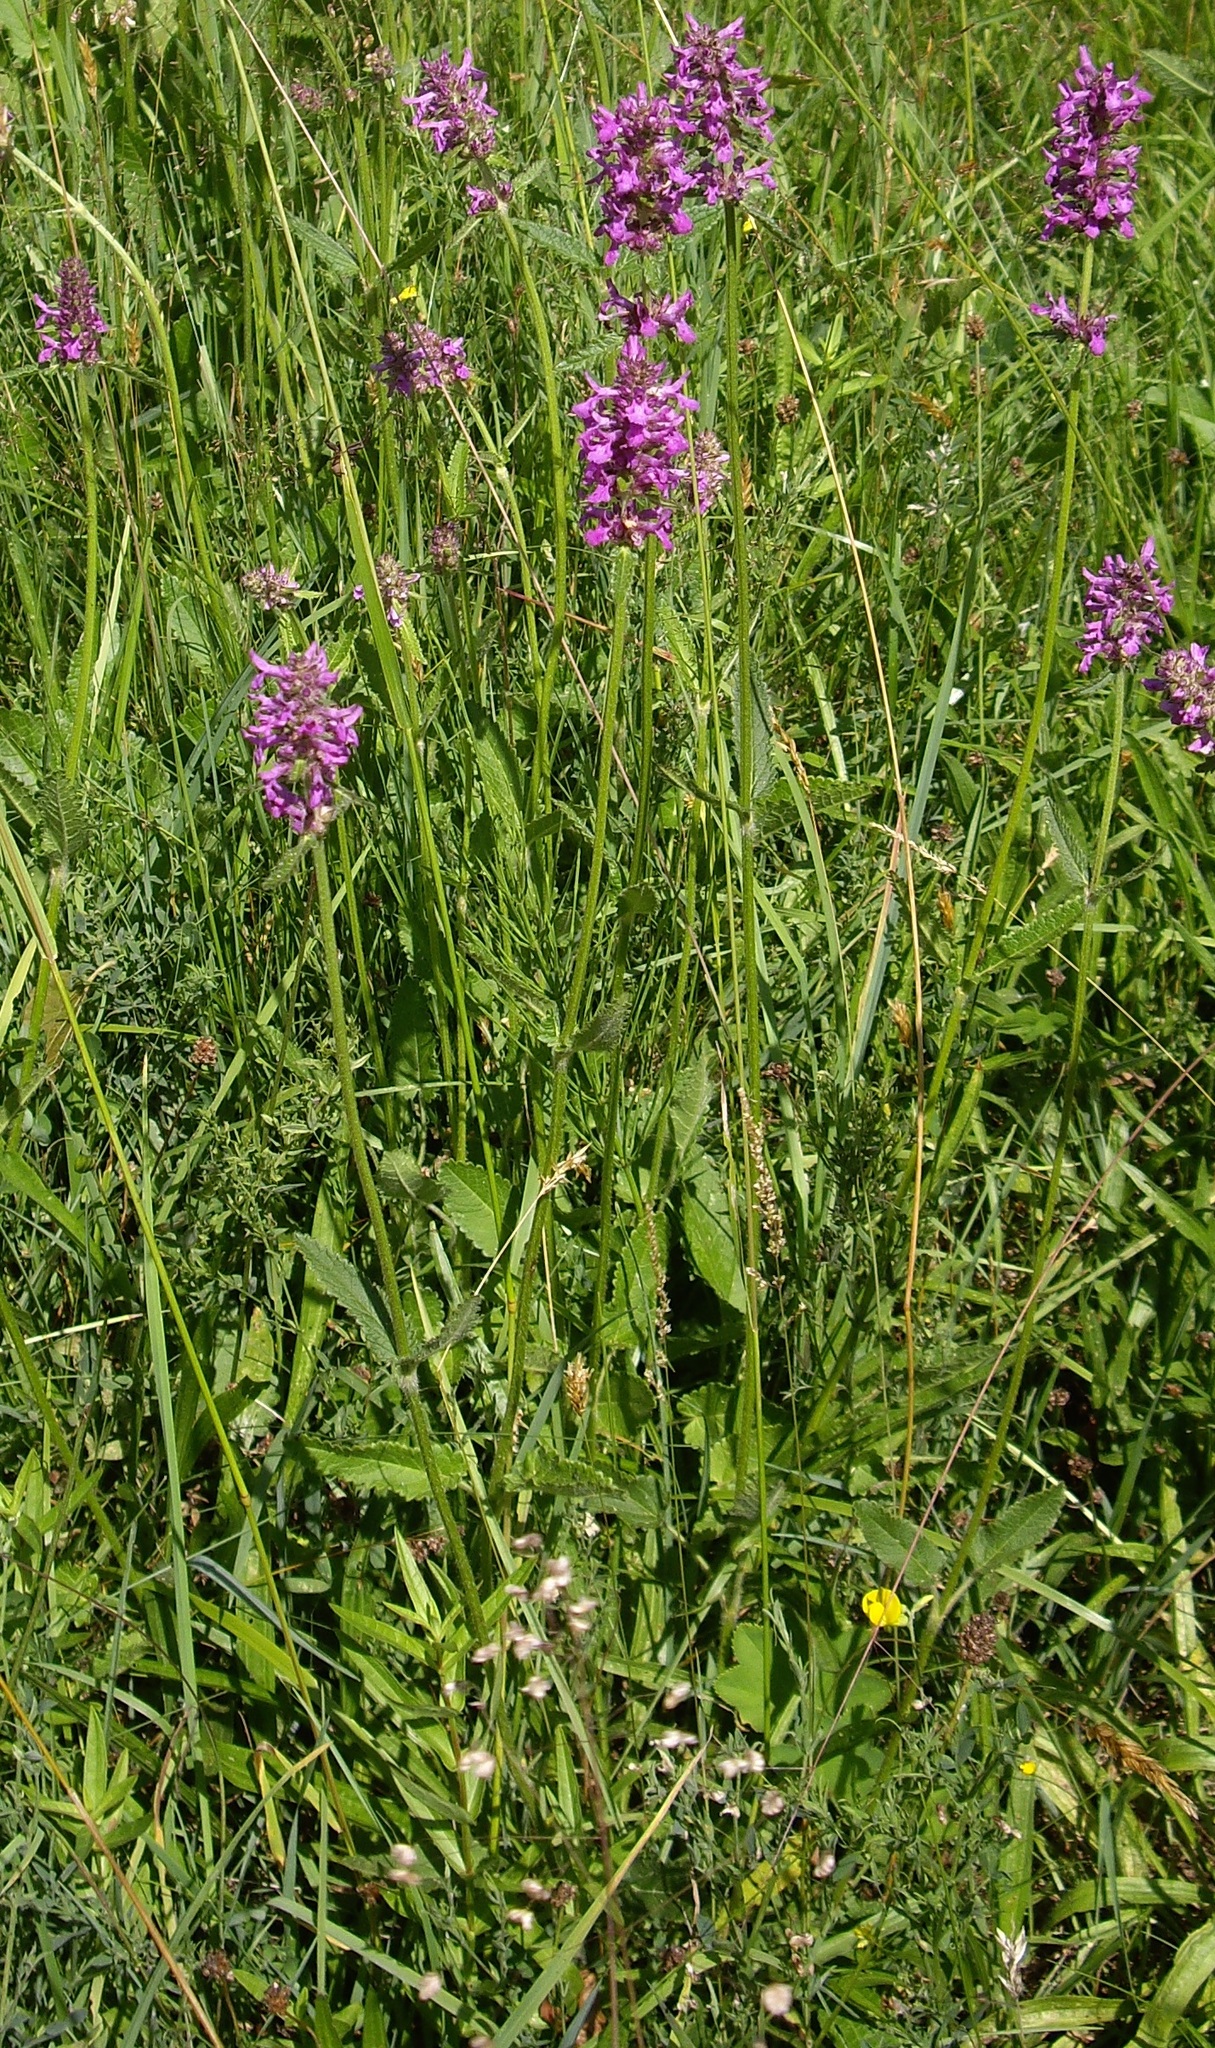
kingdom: Plantae
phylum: Tracheophyta
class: Magnoliopsida
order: Lamiales
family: Lamiaceae
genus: Betonica
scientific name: Betonica officinalis
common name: Bishop's-wort
